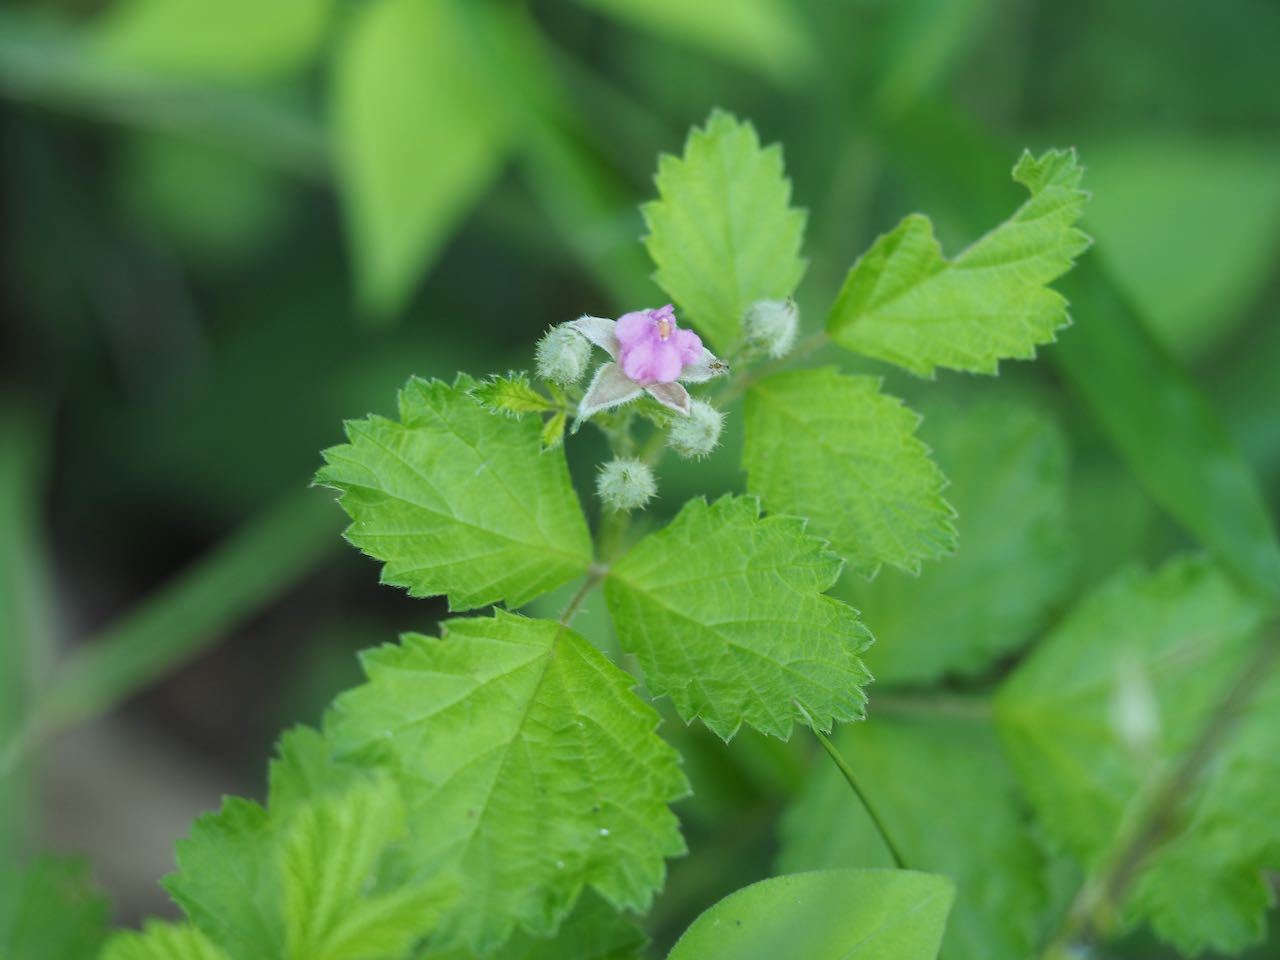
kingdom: Plantae
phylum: Tracheophyta
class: Magnoliopsida
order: Rosales
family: Rosaceae
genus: Rubus
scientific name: Rubus parvifolius
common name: Threeleaf blackberry
